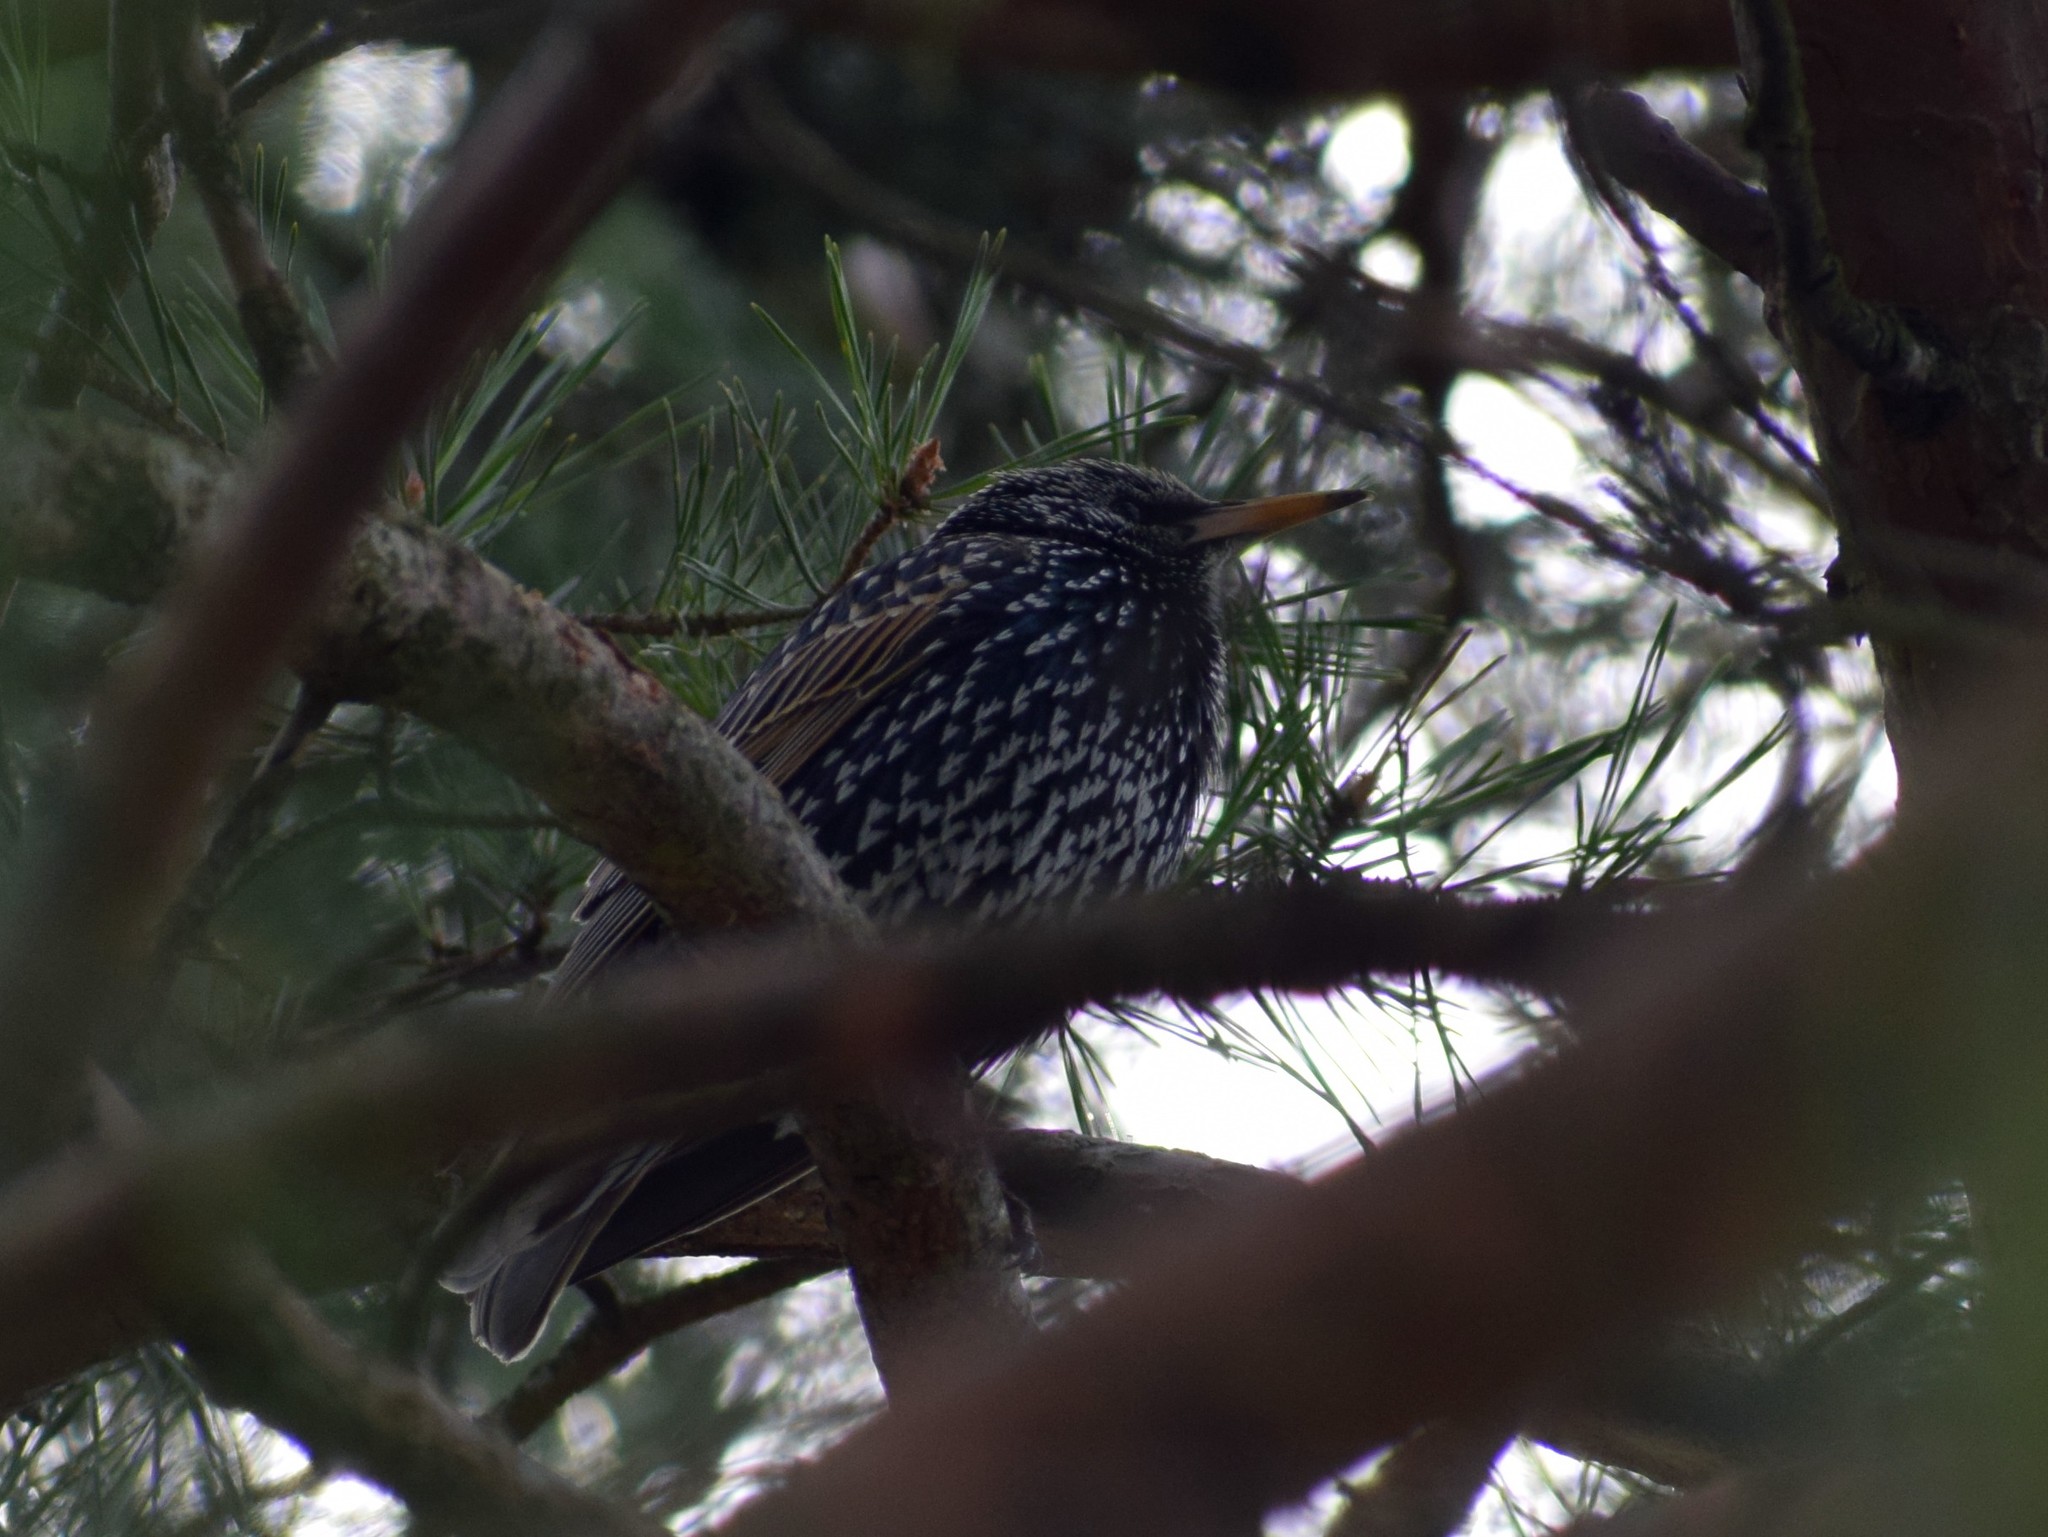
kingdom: Animalia
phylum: Chordata
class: Aves
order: Passeriformes
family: Sturnidae
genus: Sturnus
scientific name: Sturnus vulgaris
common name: Common starling
